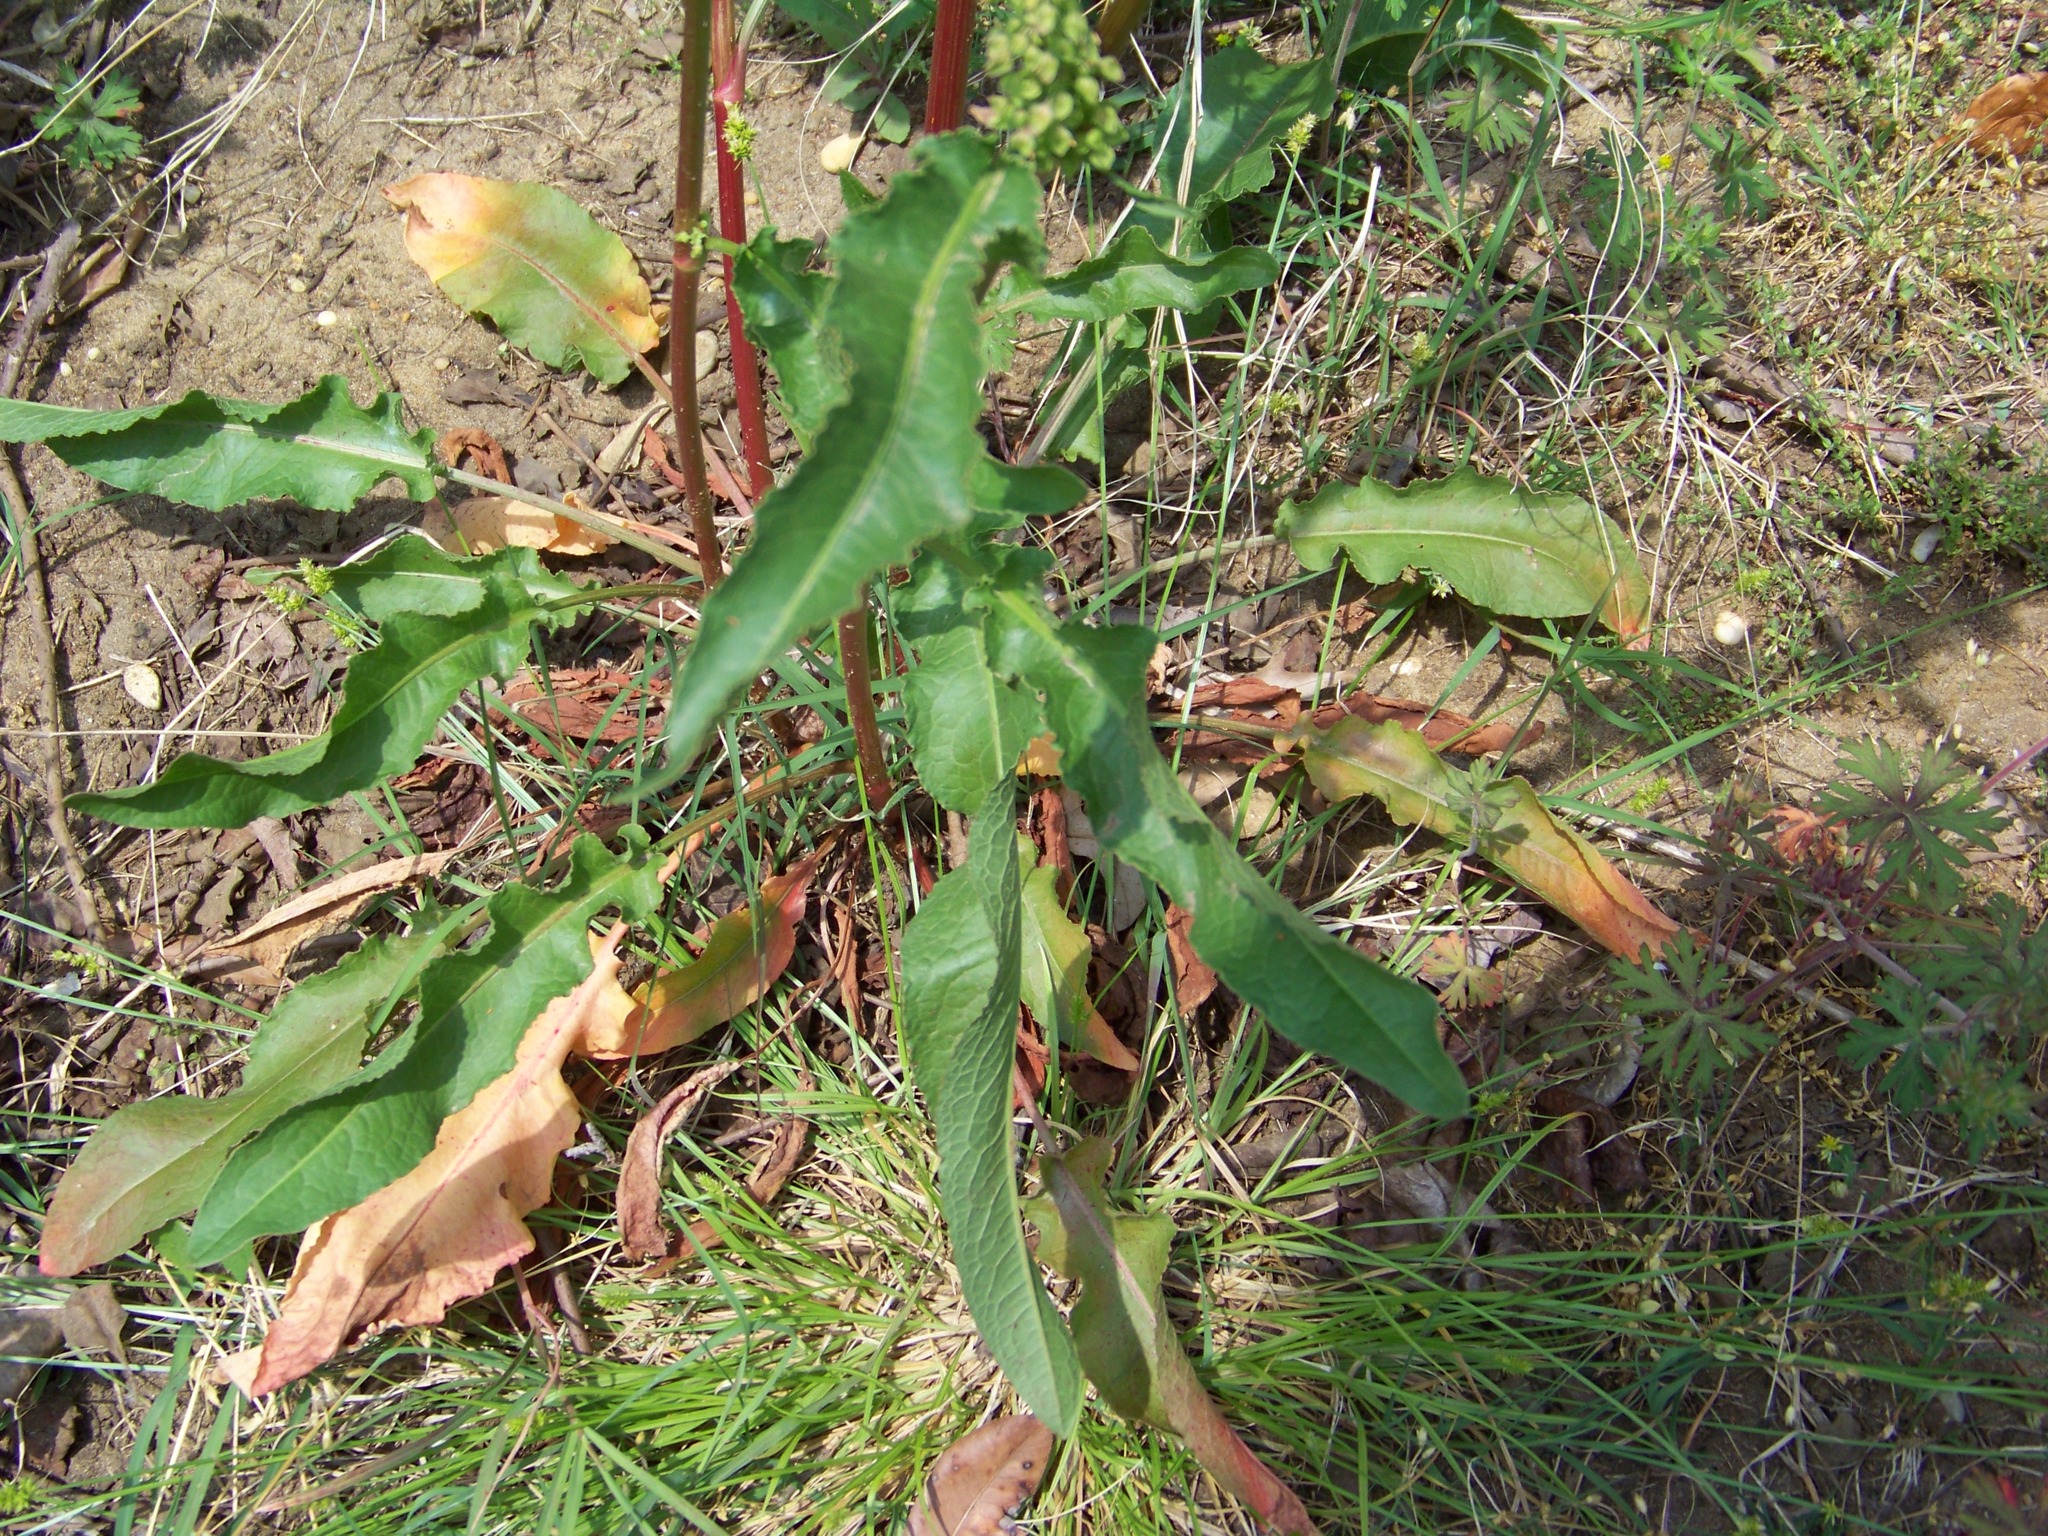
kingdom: Plantae
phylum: Tracheophyta
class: Magnoliopsida
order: Caryophyllales
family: Polygonaceae
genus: Rumex
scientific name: Rumex crispus
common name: Curled dock
